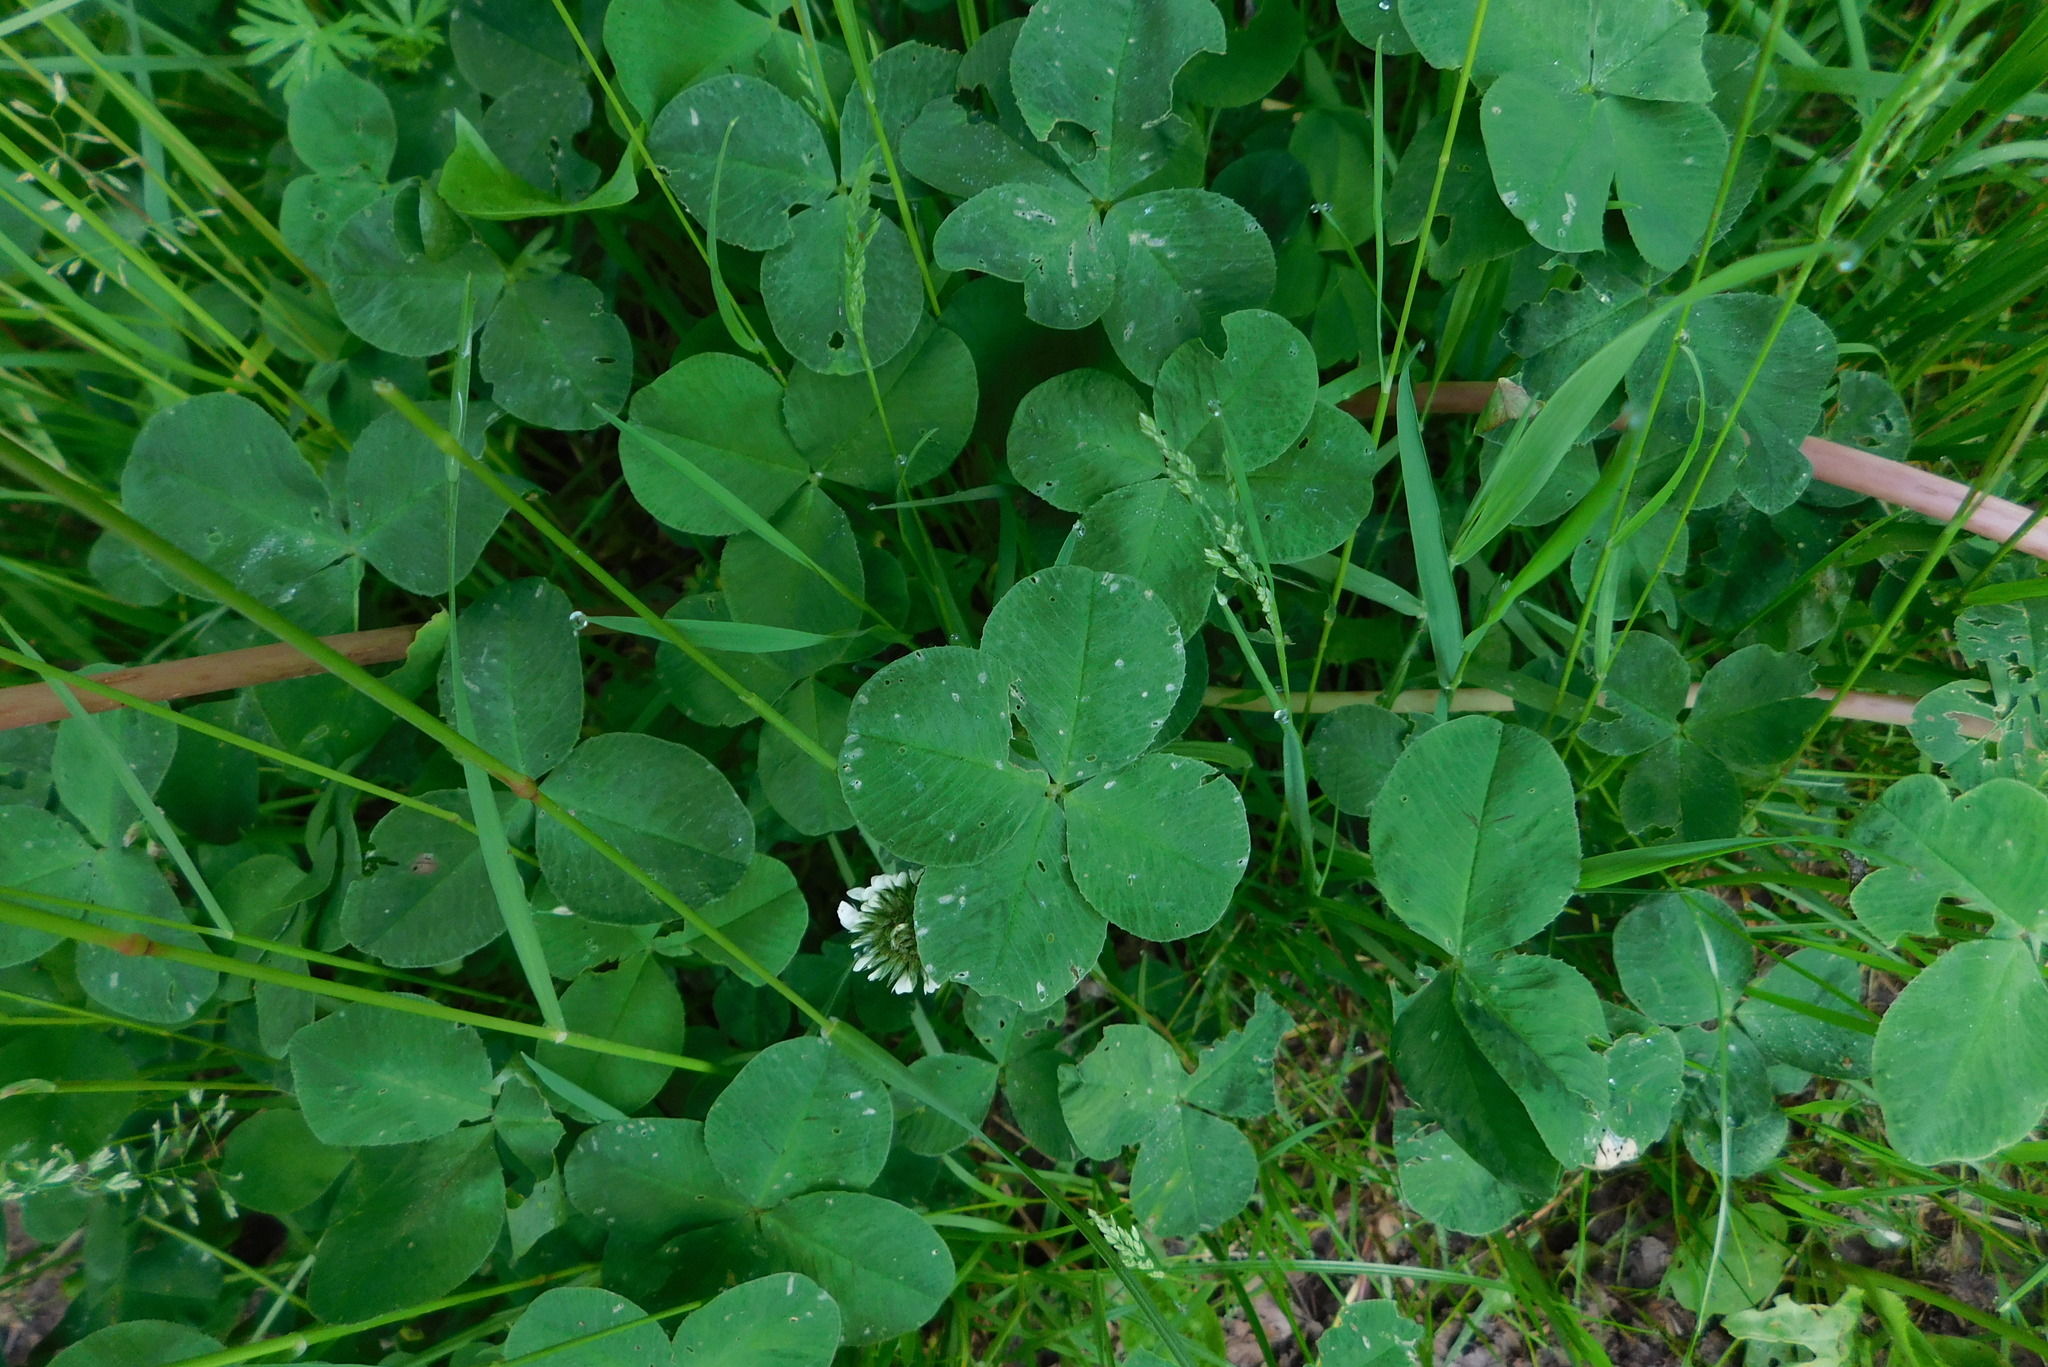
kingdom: Plantae
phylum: Tracheophyta
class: Magnoliopsida
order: Fabales
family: Fabaceae
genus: Trifolium
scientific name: Trifolium repens
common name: White clover
